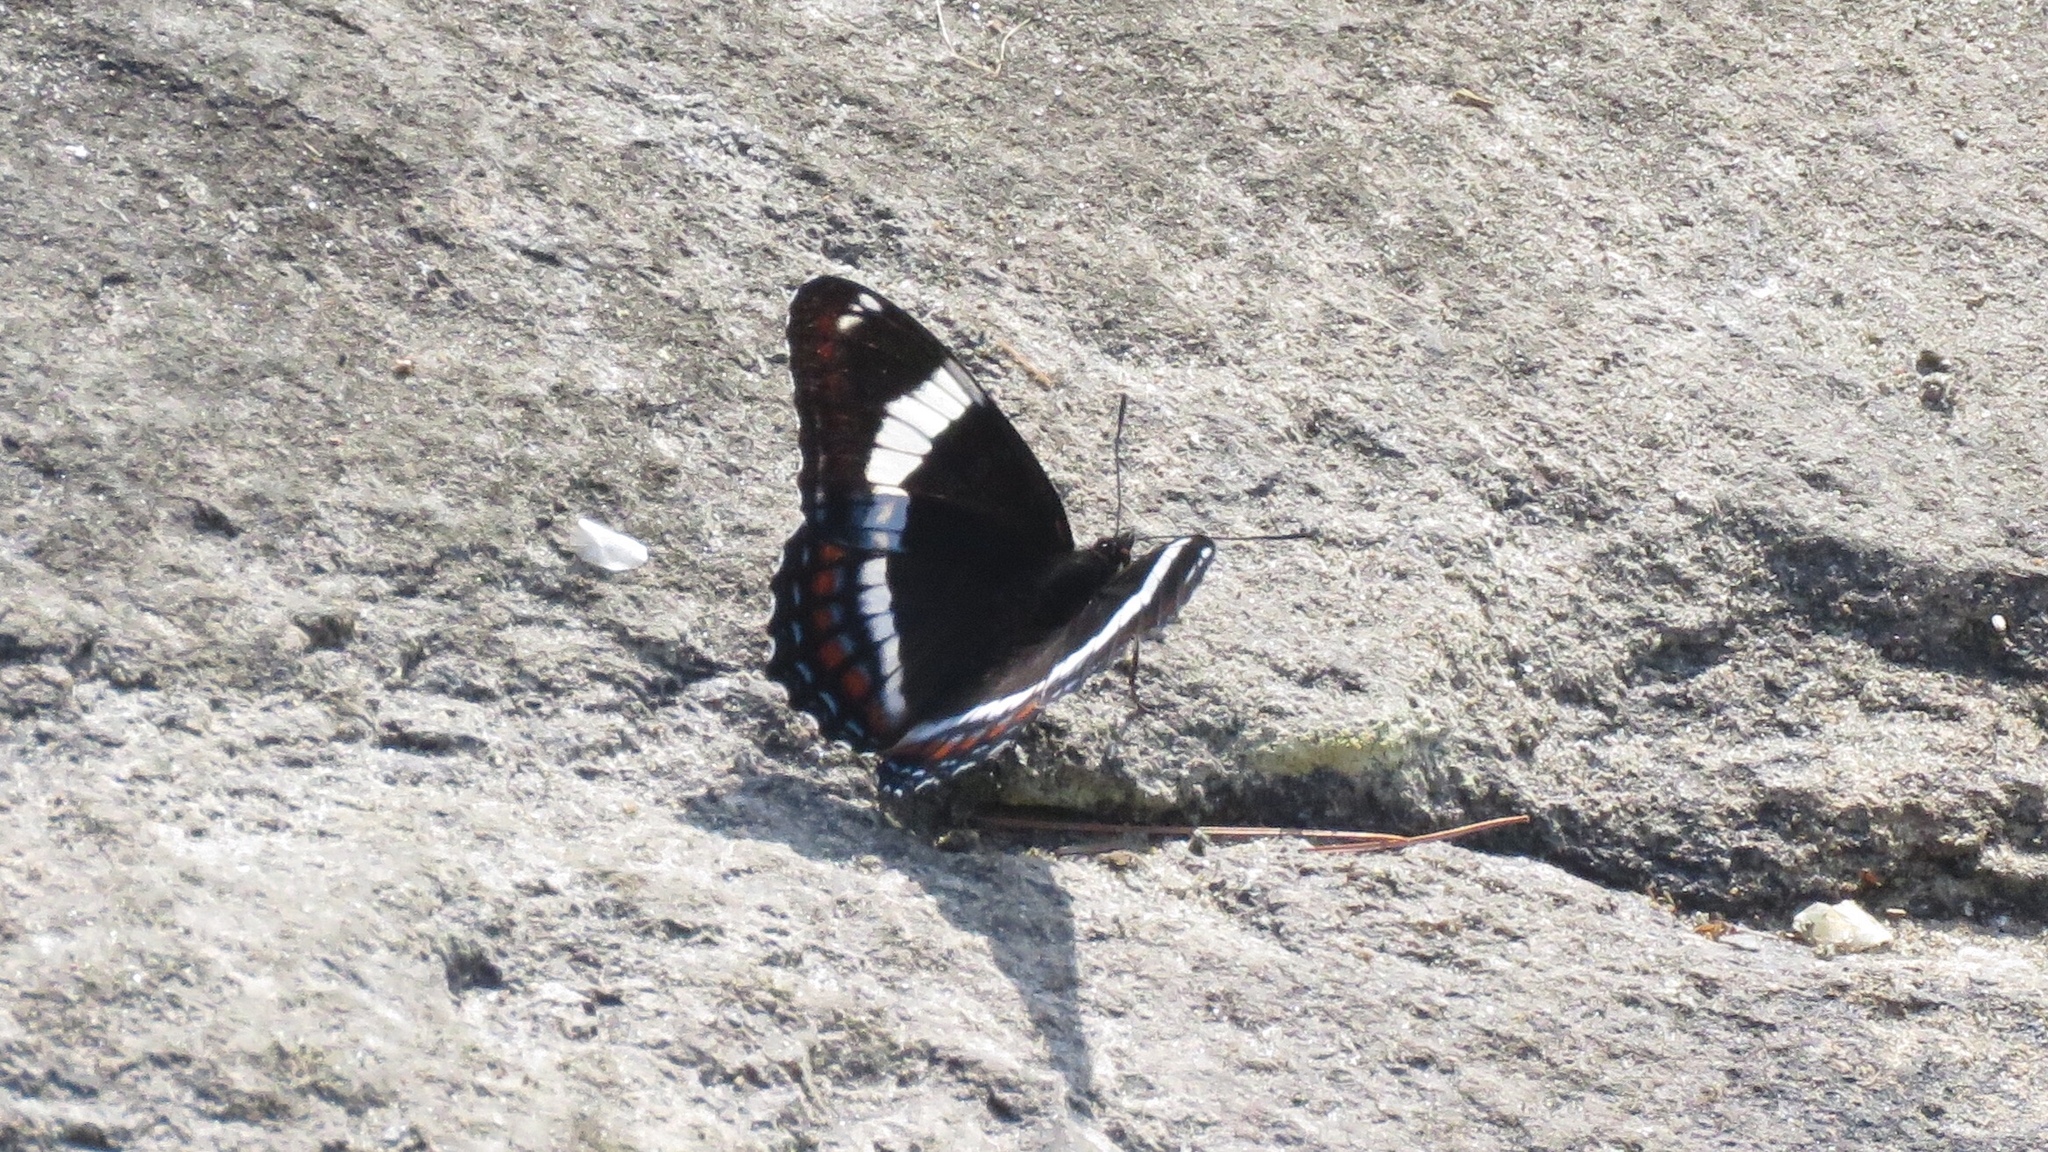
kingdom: Animalia
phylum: Arthropoda
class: Insecta
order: Lepidoptera
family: Nymphalidae
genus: Limenitis
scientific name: Limenitis arthemis
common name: Red-spotted admiral
